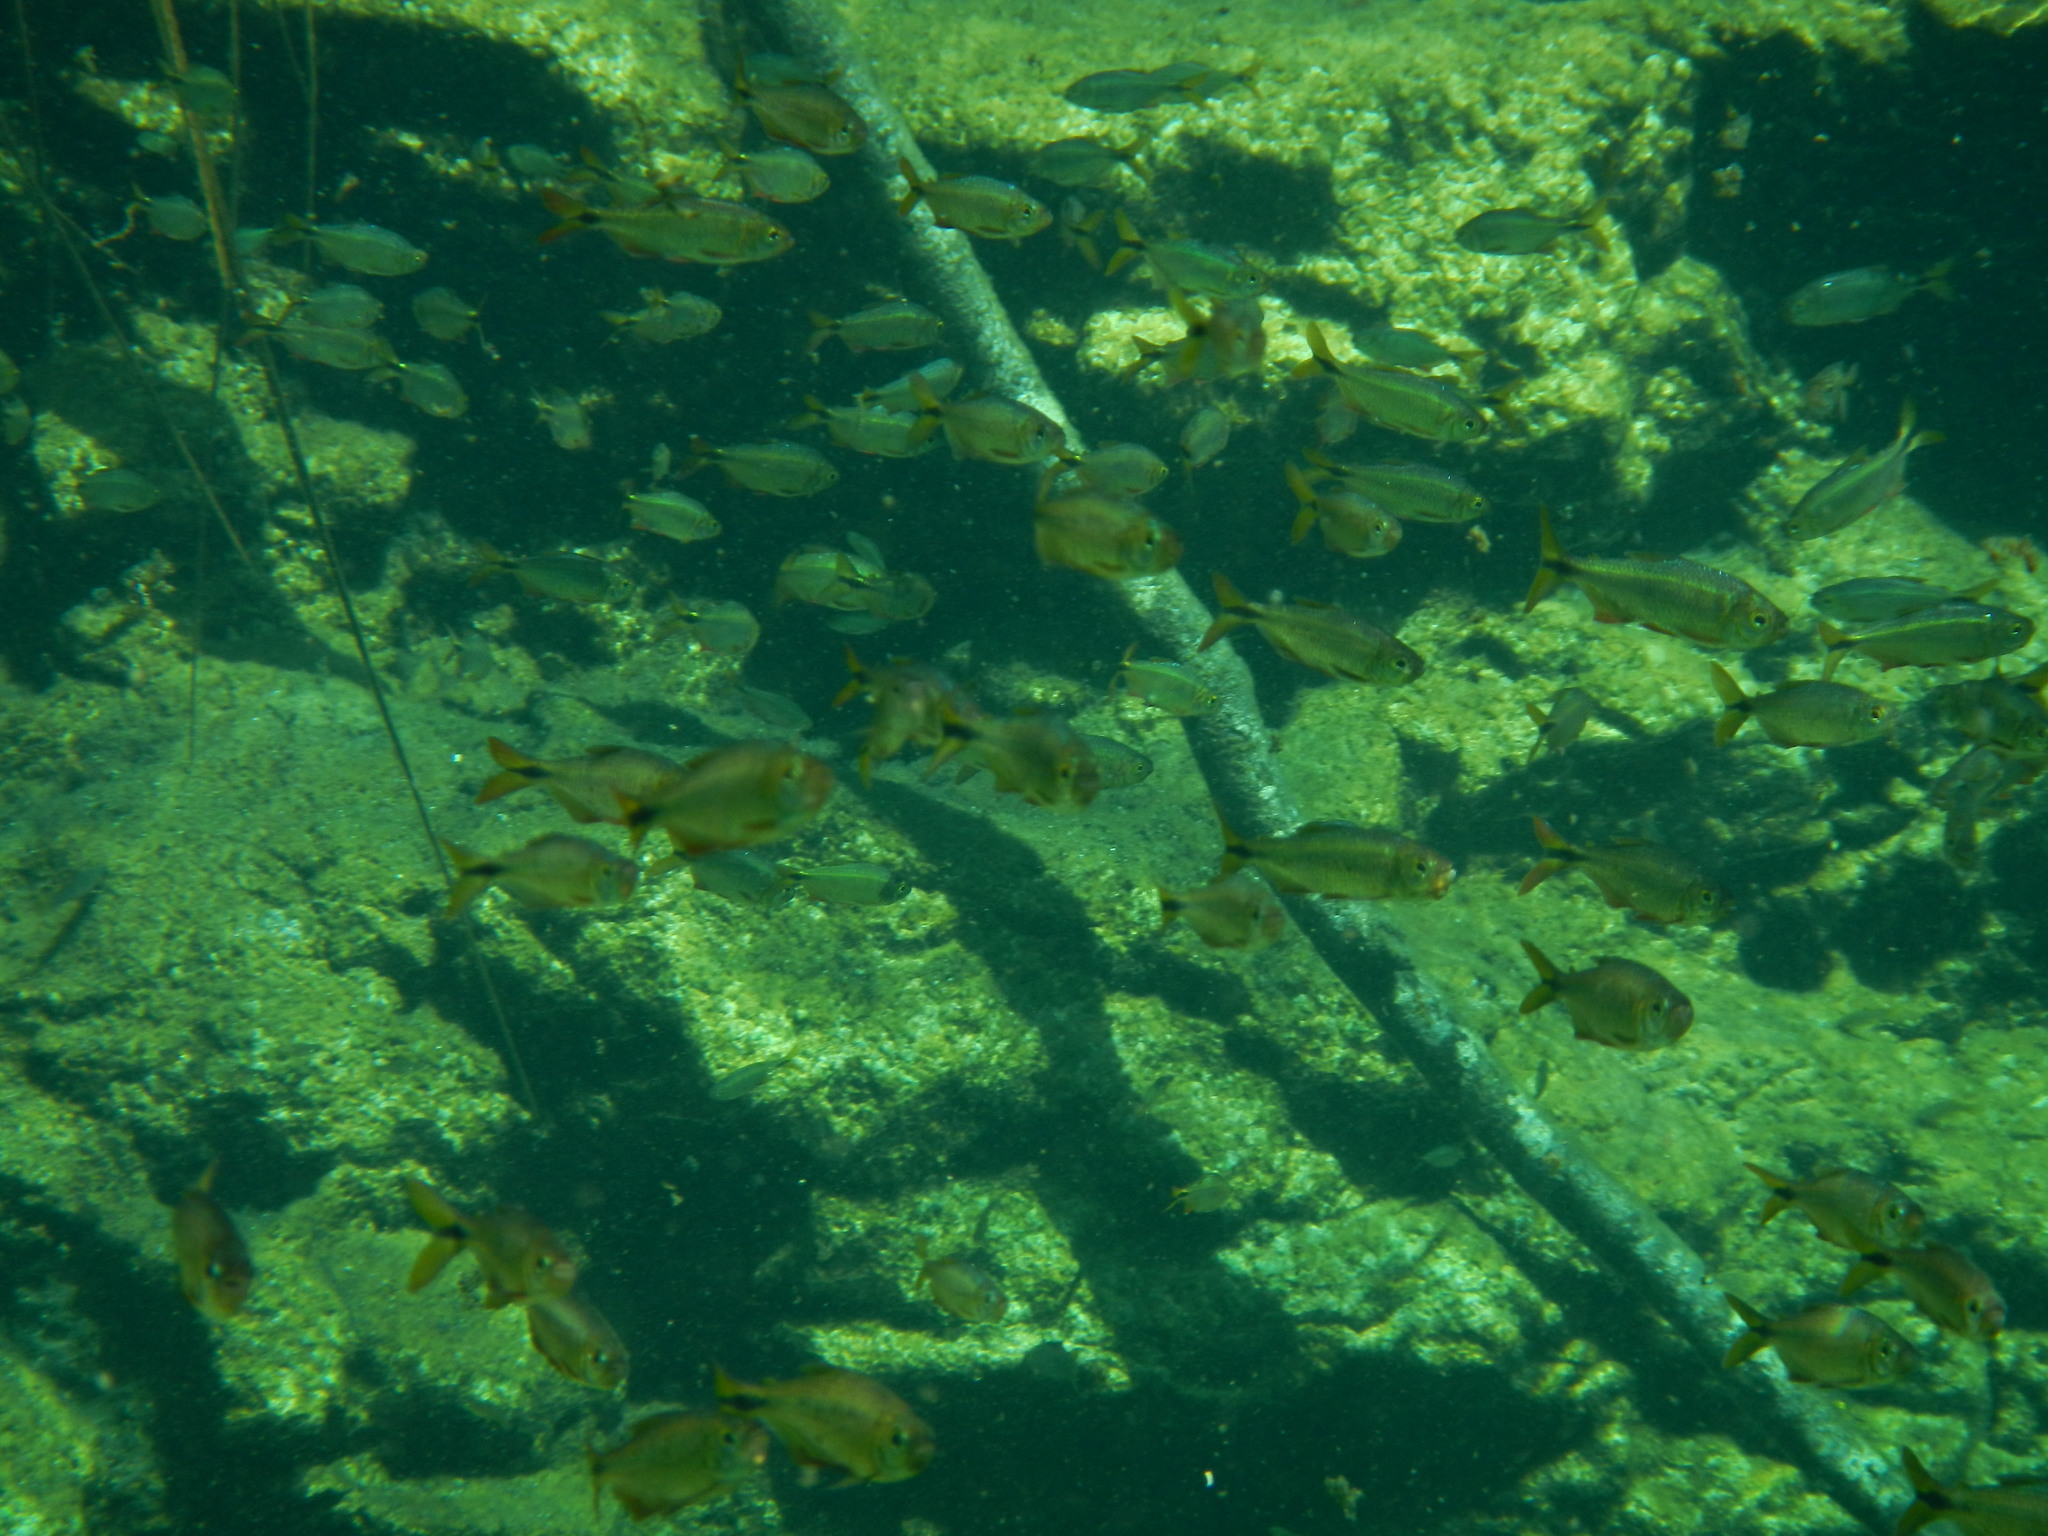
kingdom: Animalia
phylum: Chordata
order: Characiformes
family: Characidae
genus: Astyanax
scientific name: Astyanax bacalarensis
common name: Bacalar tetra
